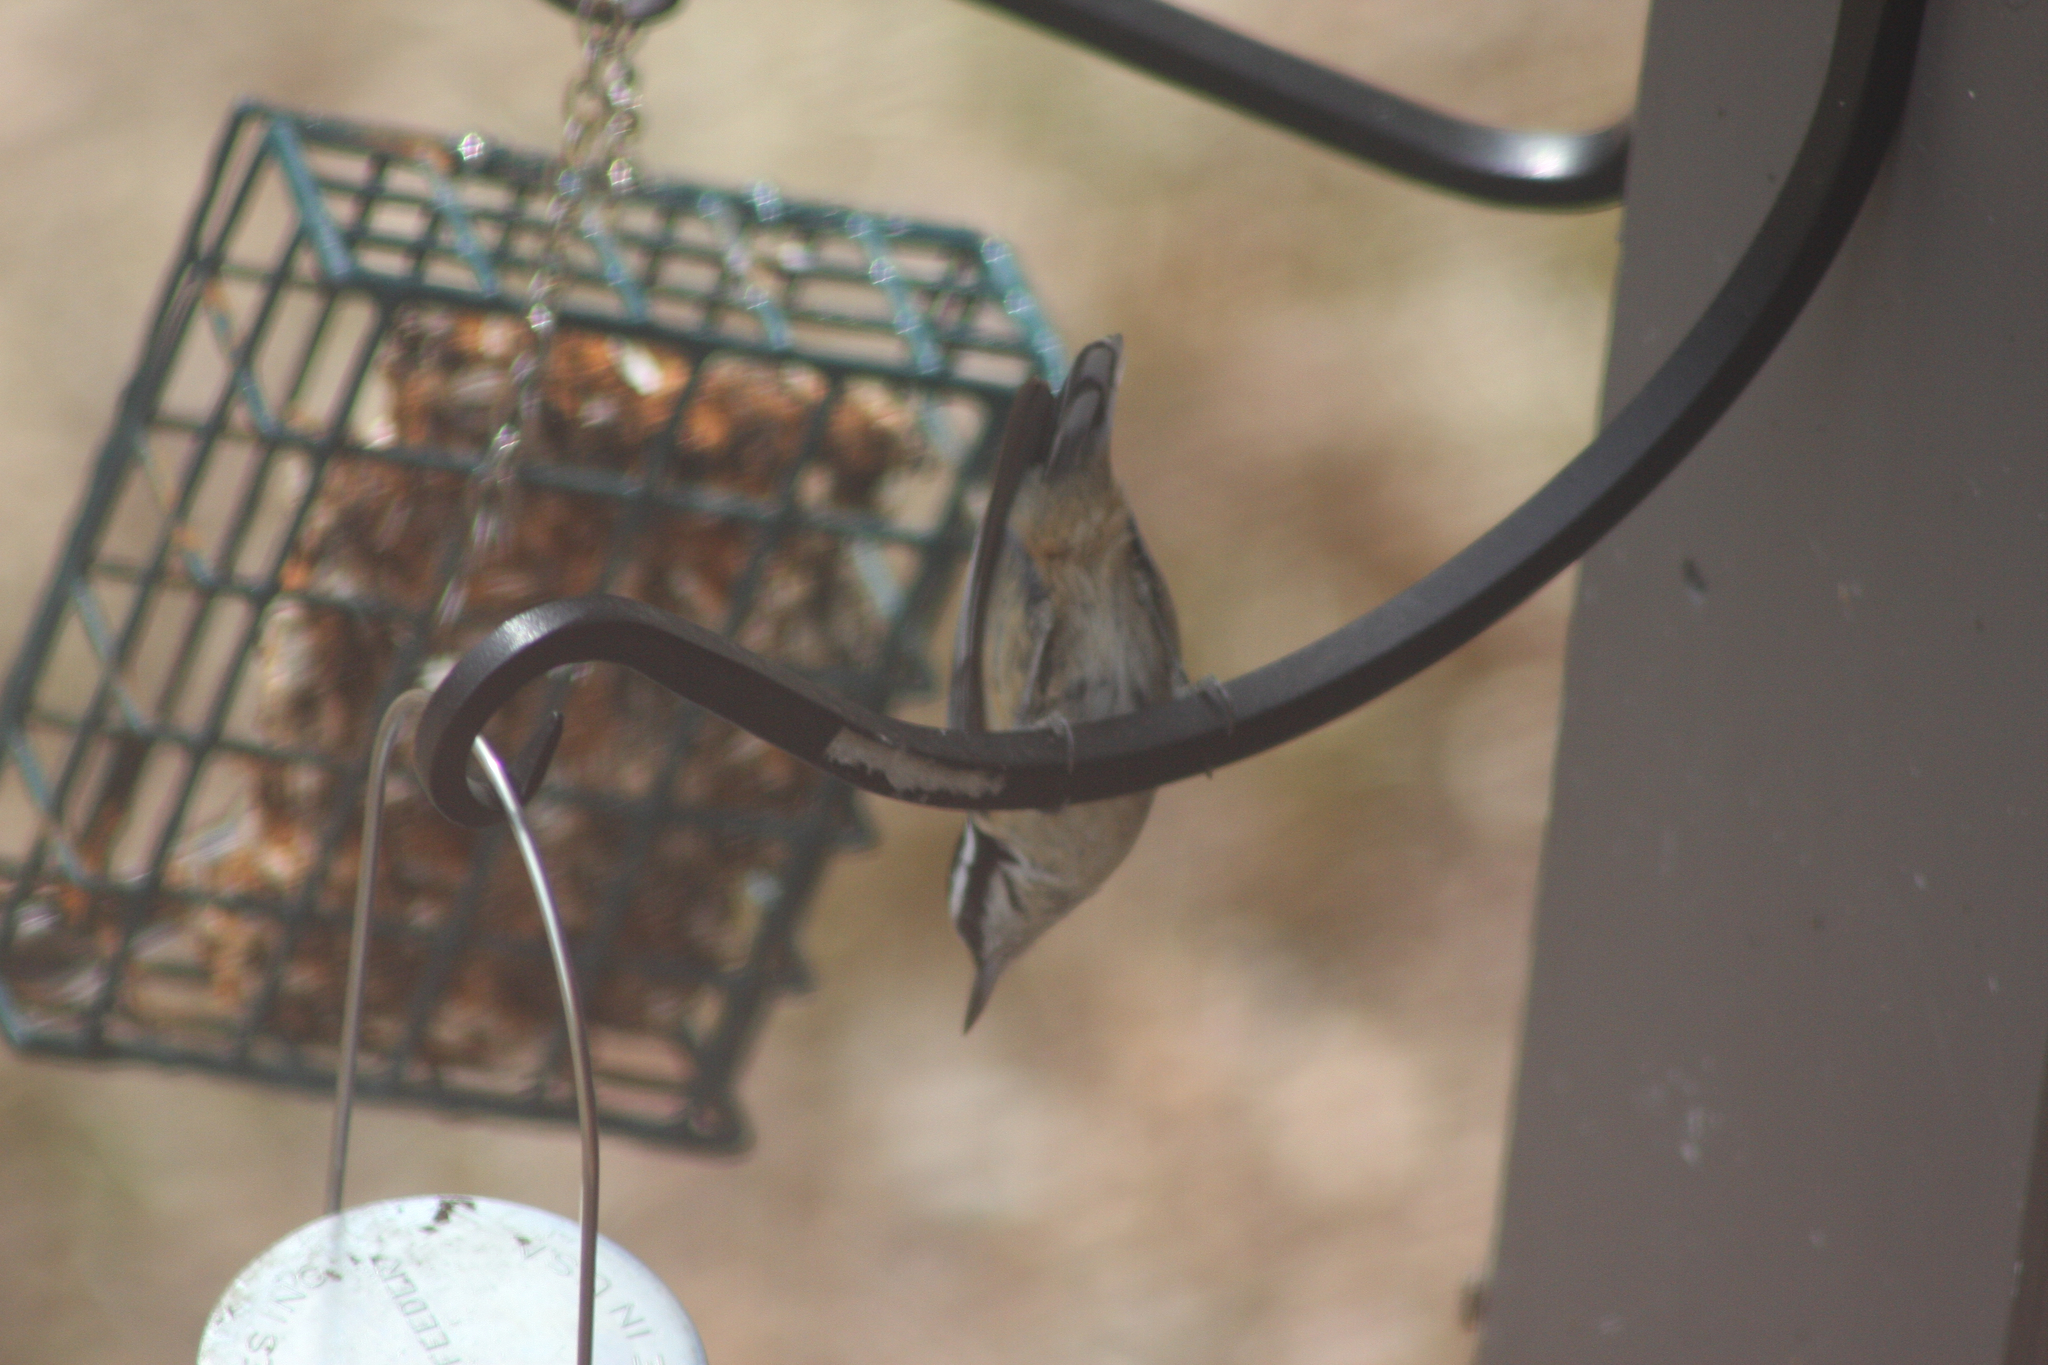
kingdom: Animalia
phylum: Chordata
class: Aves
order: Passeriformes
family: Sittidae
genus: Sitta
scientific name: Sitta canadensis
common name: Red-breasted nuthatch
